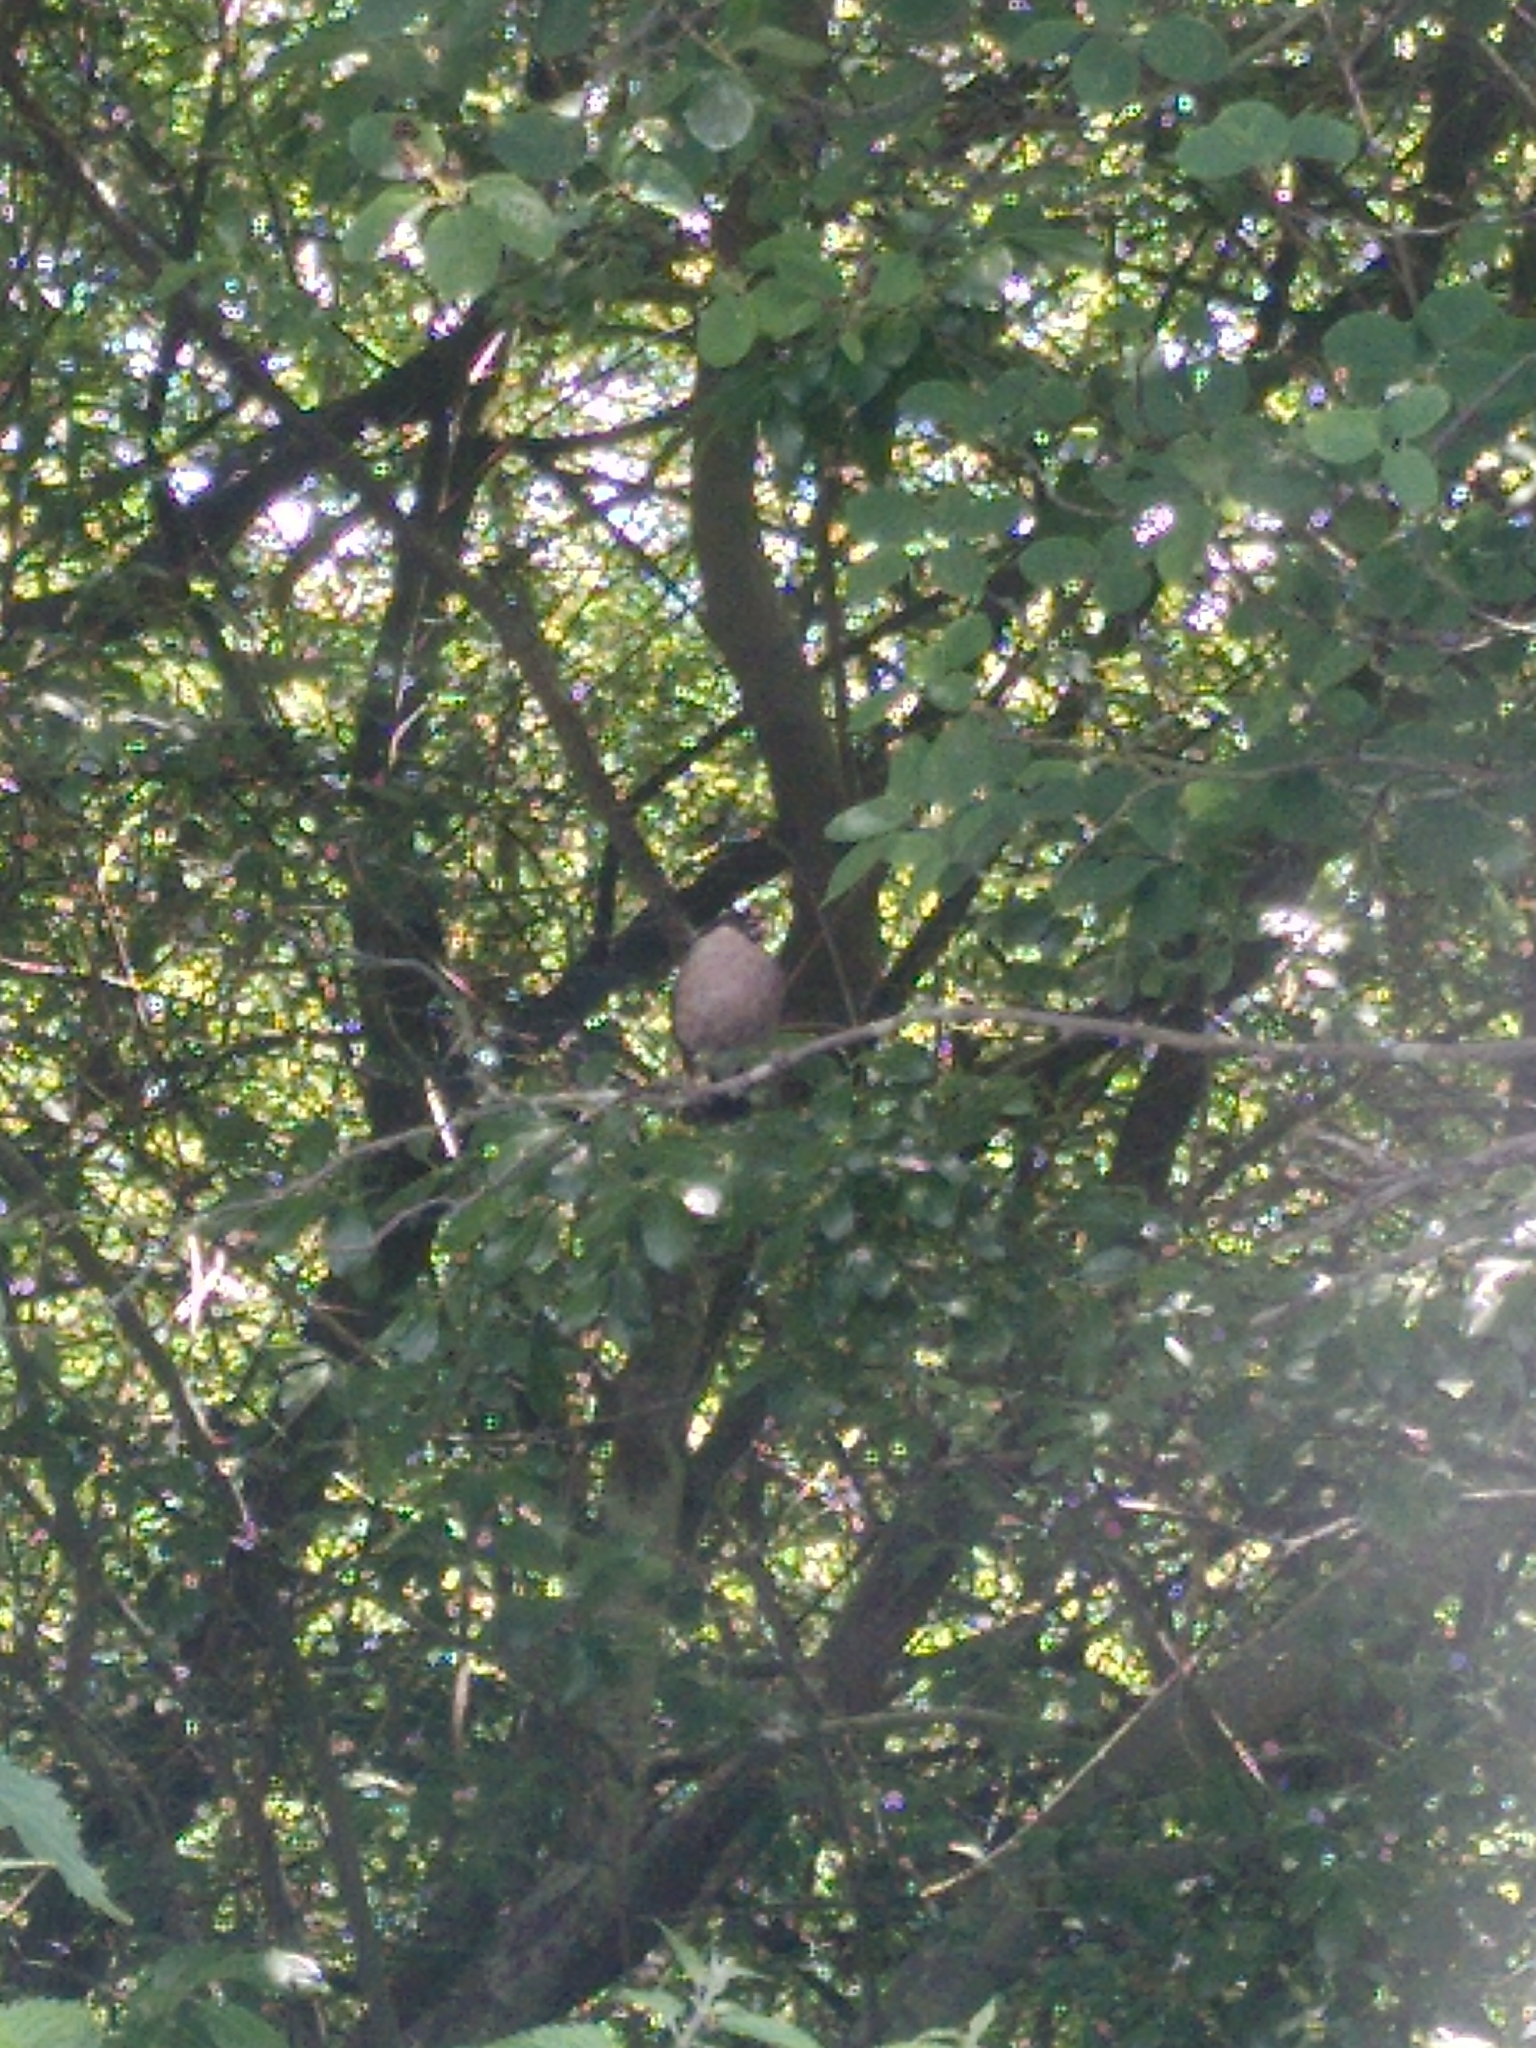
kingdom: Animalia
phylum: Chordata
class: Aves
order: Passeriformes
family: Fringillidae
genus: Pyrrhula
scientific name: Pyrrhula pyrrhula
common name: Eurasian bullfinch
